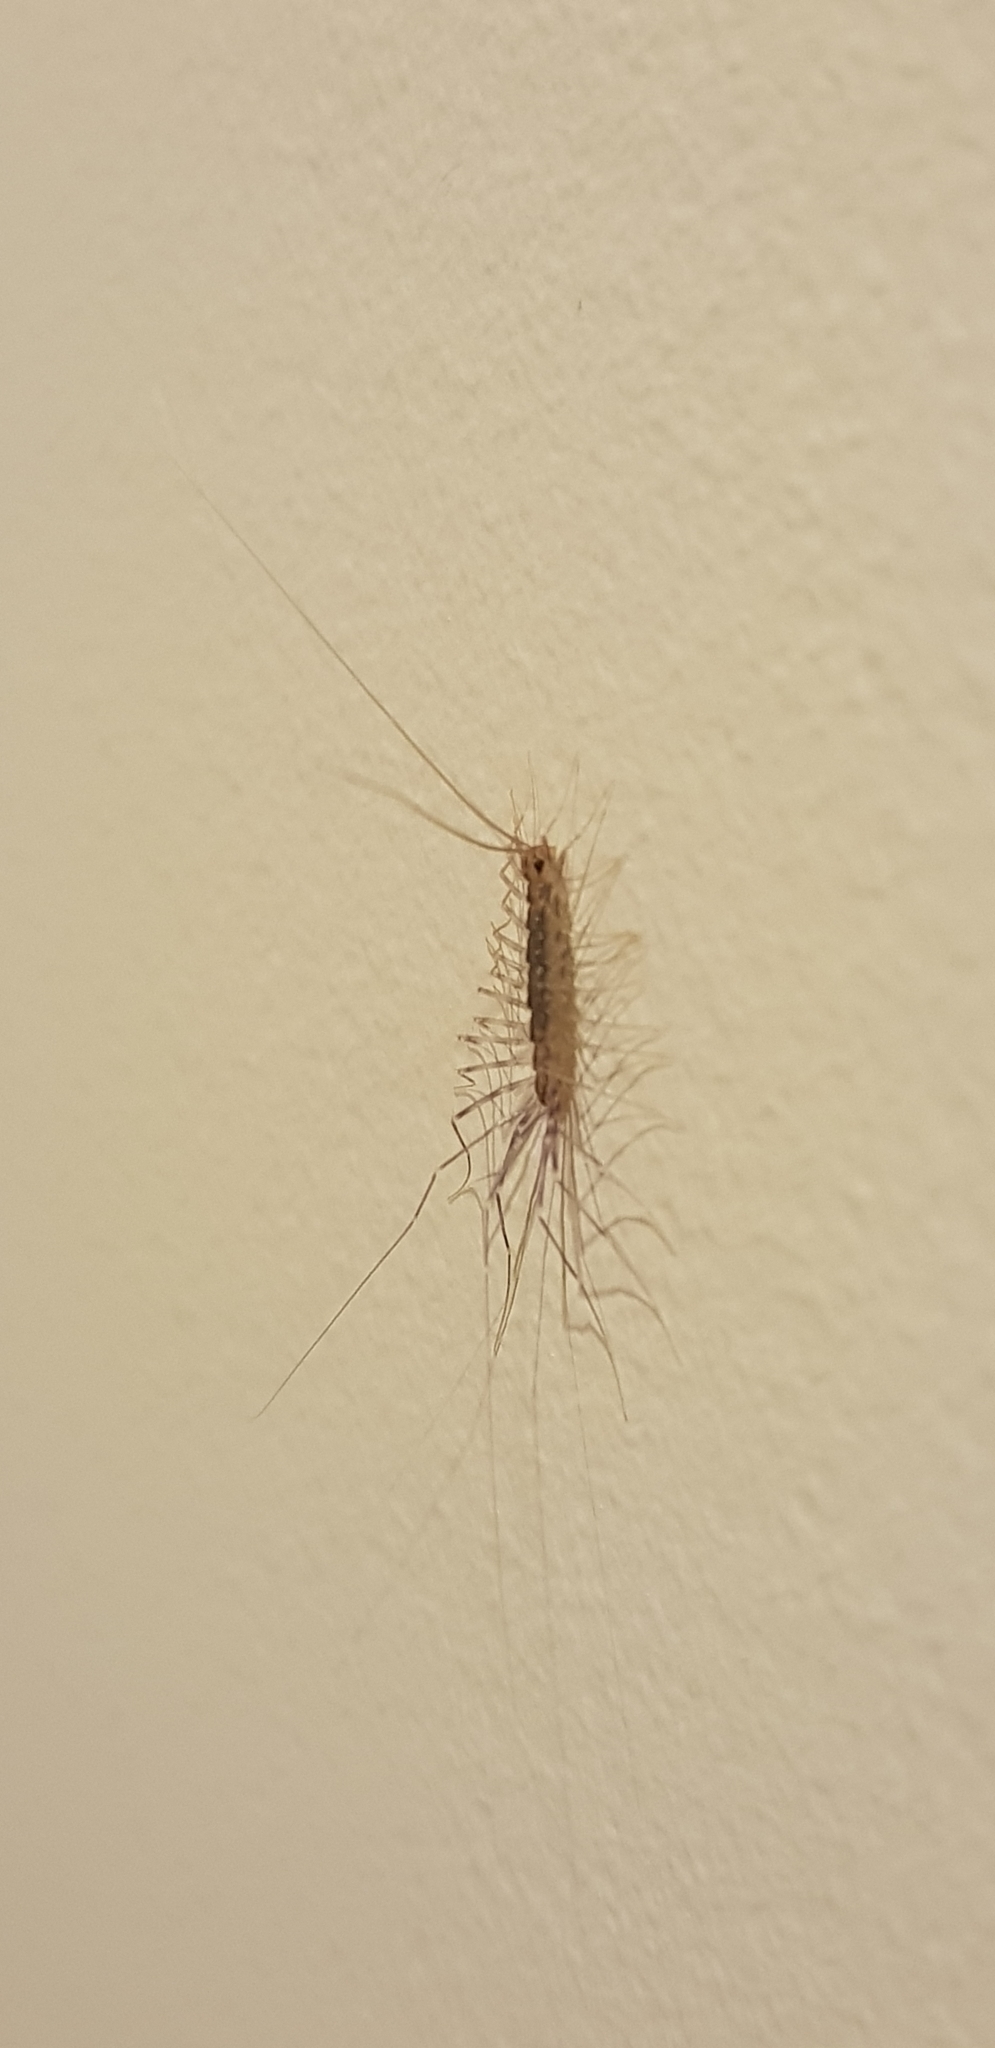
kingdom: Animalia
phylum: Arthropoda
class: Chilopoda
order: Scutigeromorpha
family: Scutigeridae
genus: Scutigera
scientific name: Scutigera coleoptrata
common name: House centipede
